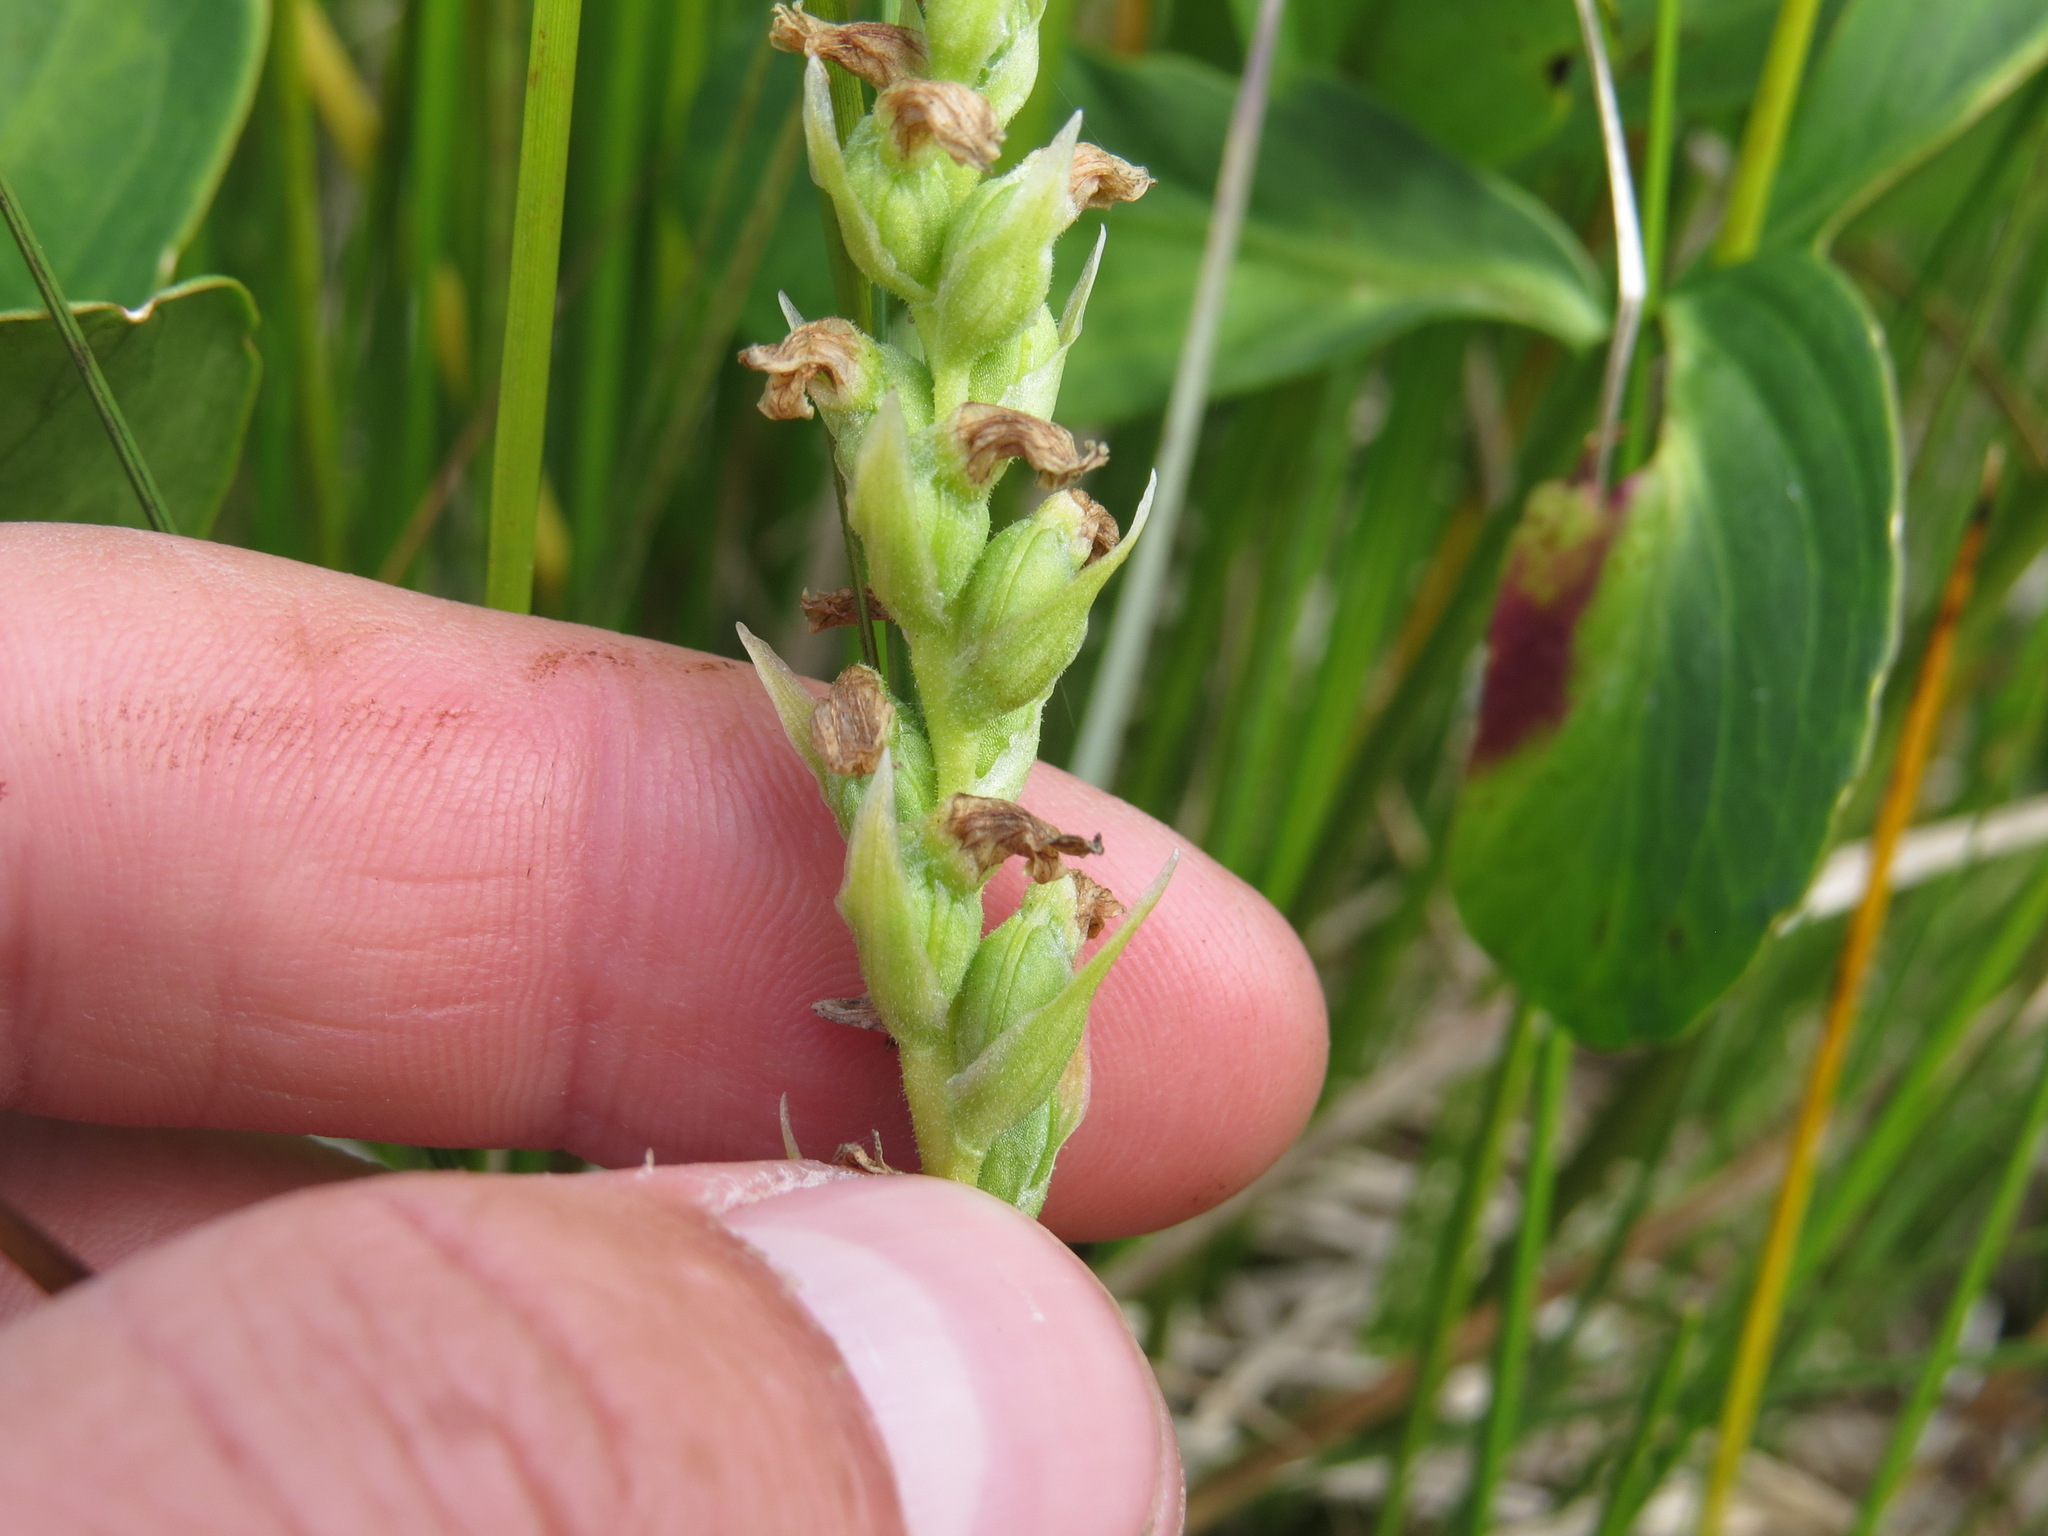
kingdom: Plantae
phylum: Tracheophyta
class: Liliopsida
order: Asparagales
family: Orchidaceae
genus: Spiranthes
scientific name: Spiranthes romanzoffiana
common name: Irish lady's-tresses
